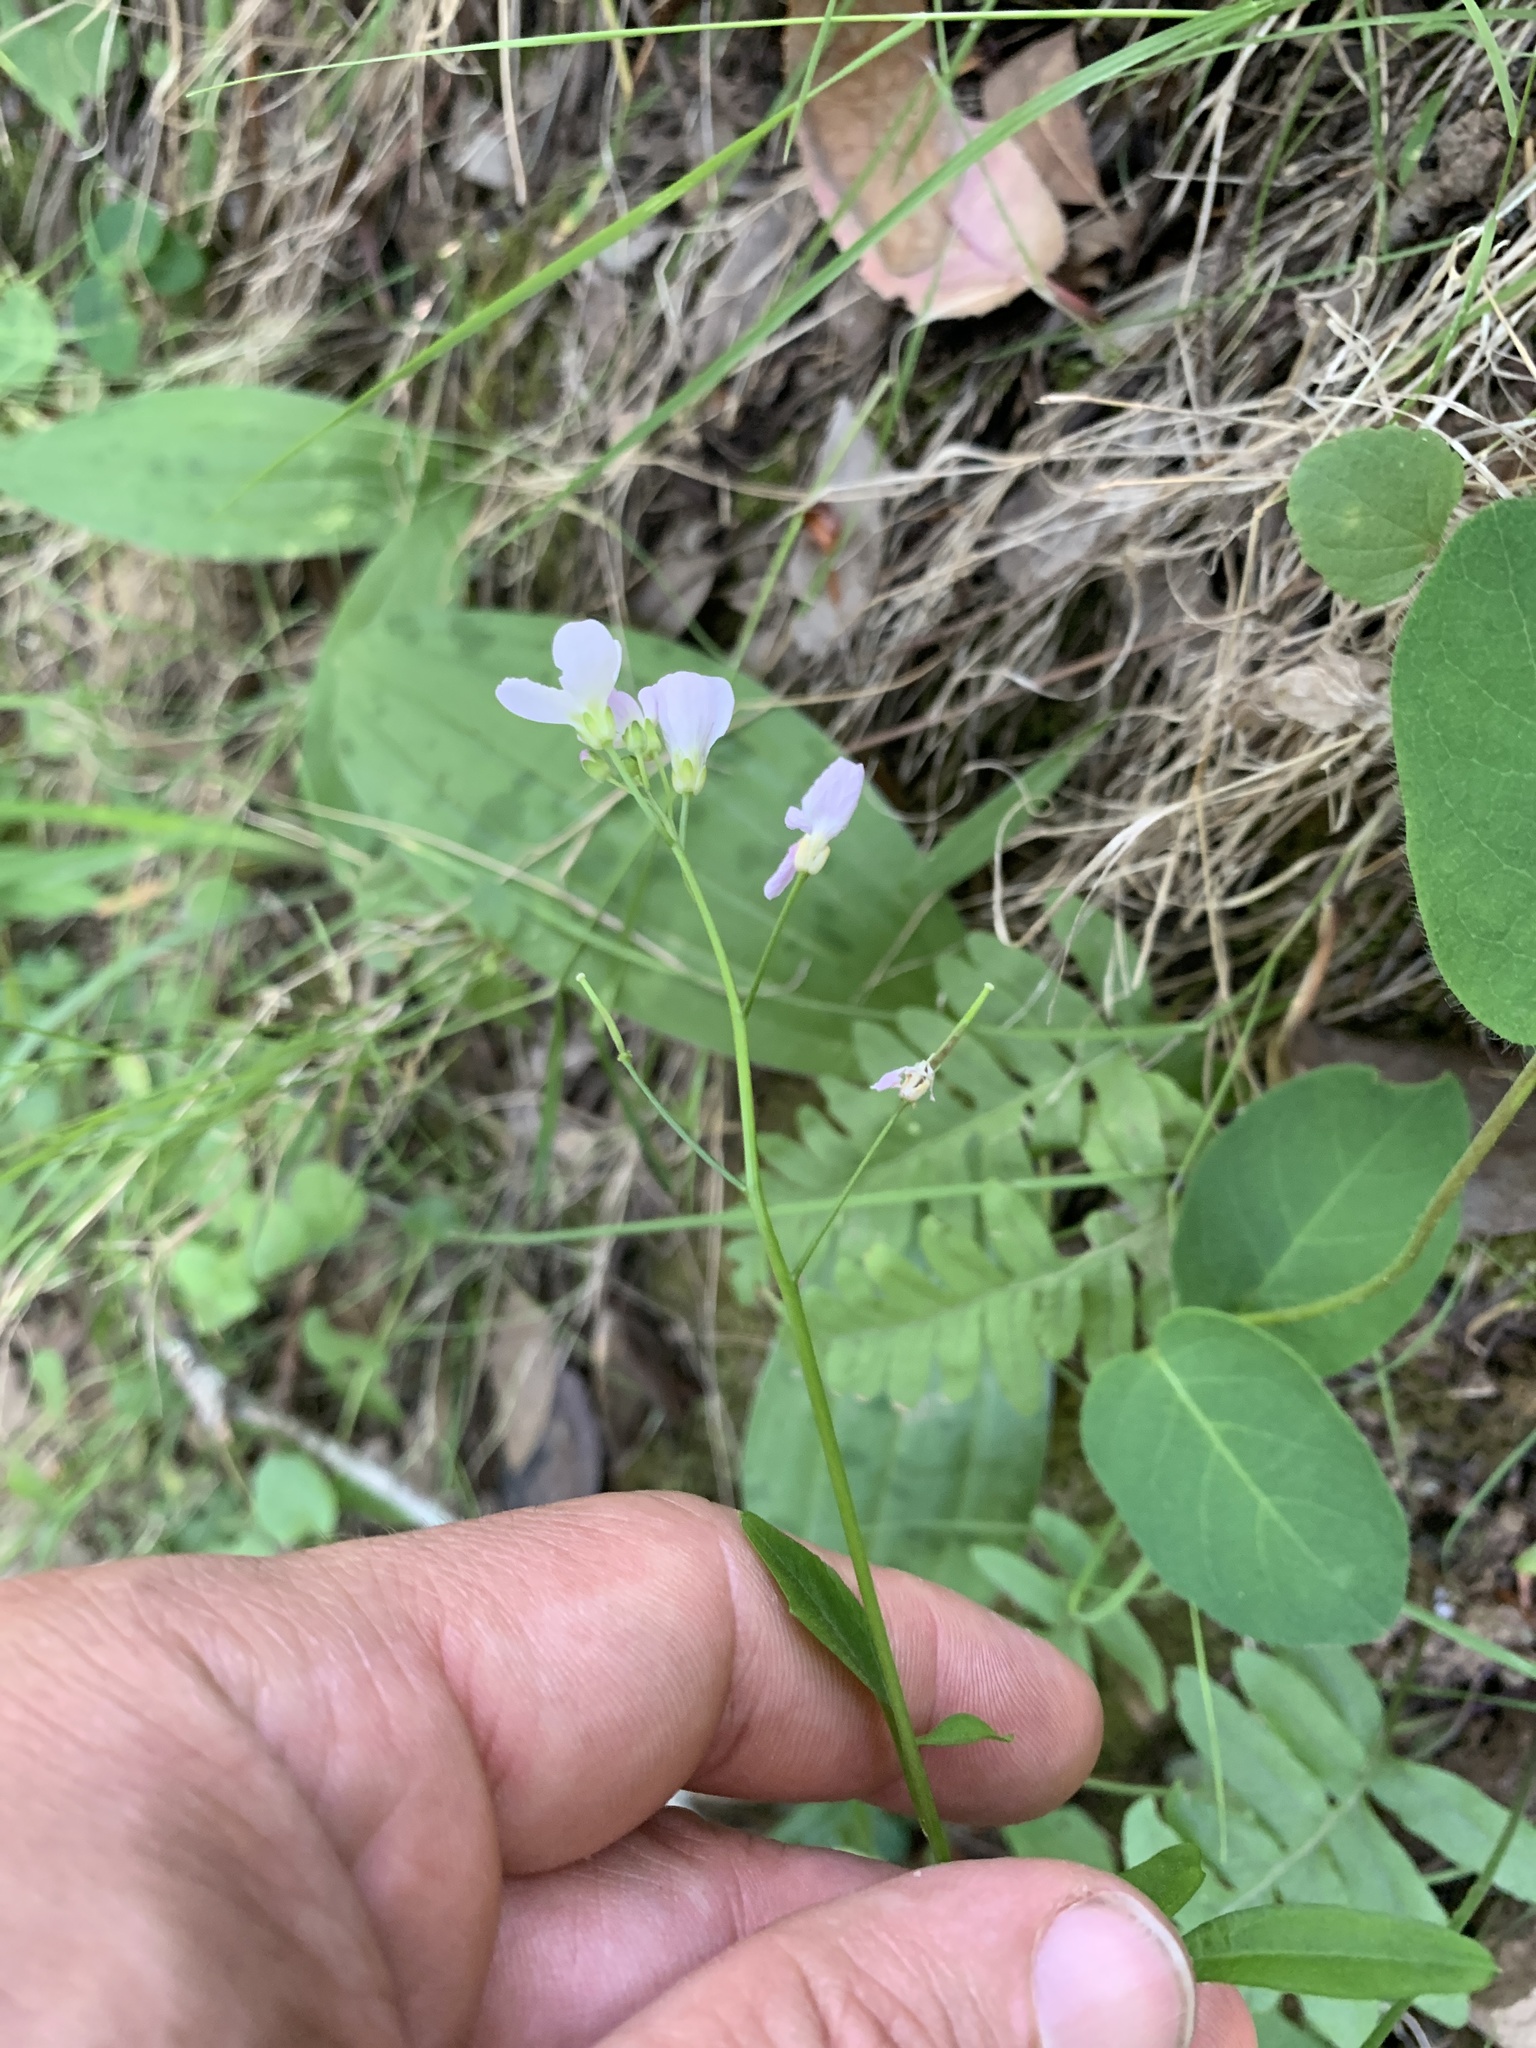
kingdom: Plantae
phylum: Tracheophyta
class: Magnoliopsida
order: Brassicales
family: Brassicaceae
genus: Cardamine
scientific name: Cardamine californica
